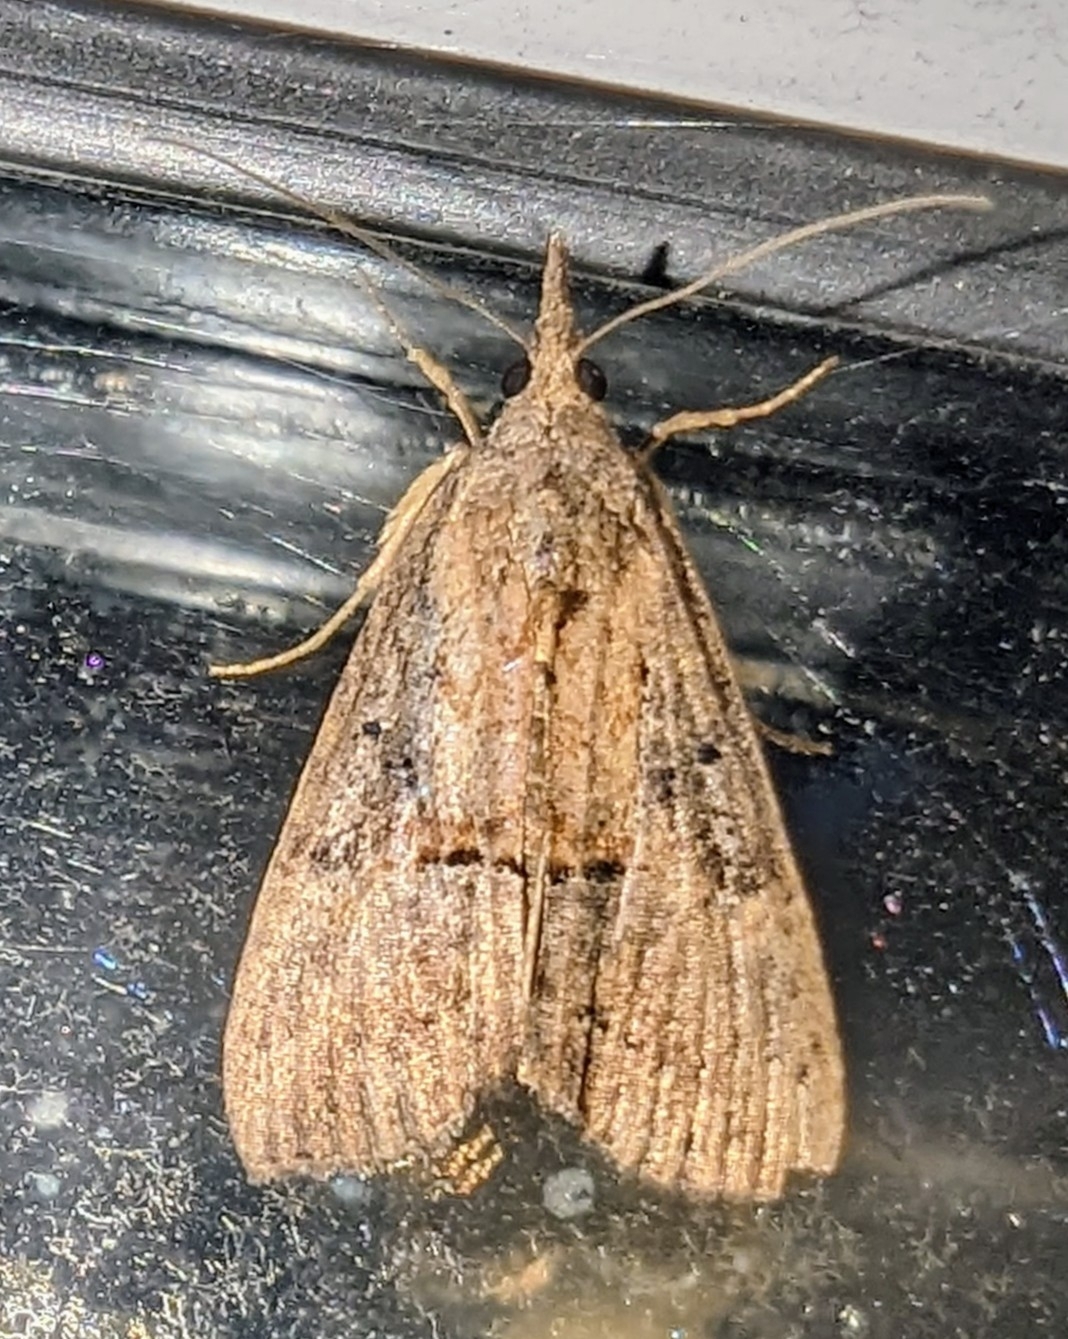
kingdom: Animalia
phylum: Arthropoda
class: Insecta
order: Lepidoptera
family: Erebidae
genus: Hypena
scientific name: Hypena scabra
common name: Green cloverworm
